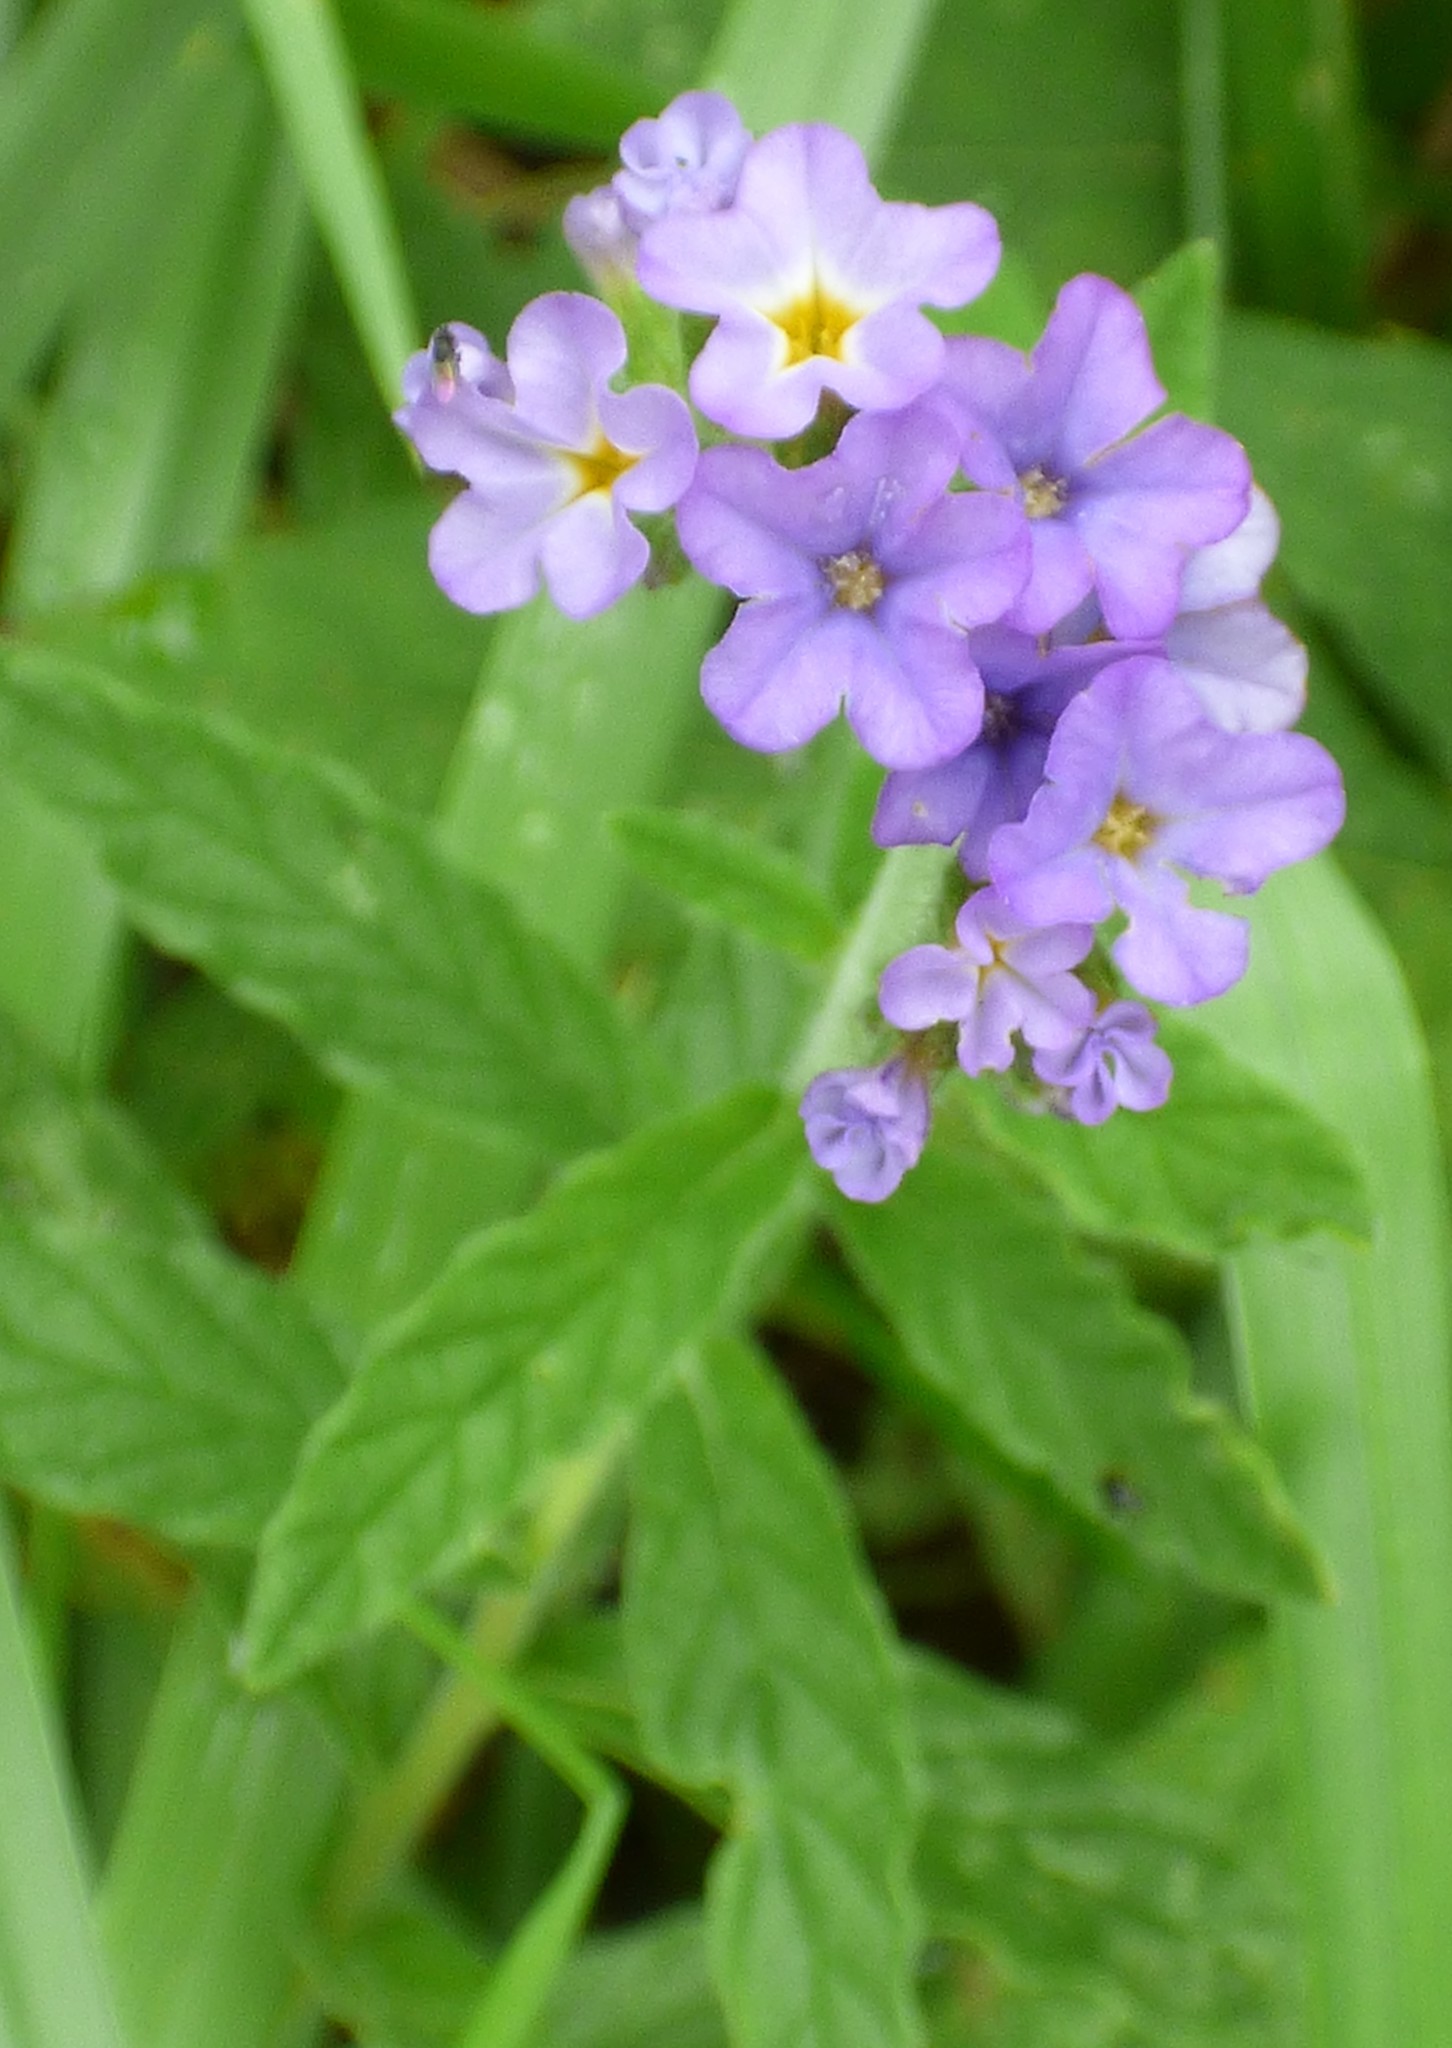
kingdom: Plantae
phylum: Tracheophyta
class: Magnoliopsida
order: Boraginales
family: Heliotropiaceae
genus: Heliotropium
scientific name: Heliotropium amplexicaule
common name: Clasping heliotrope
